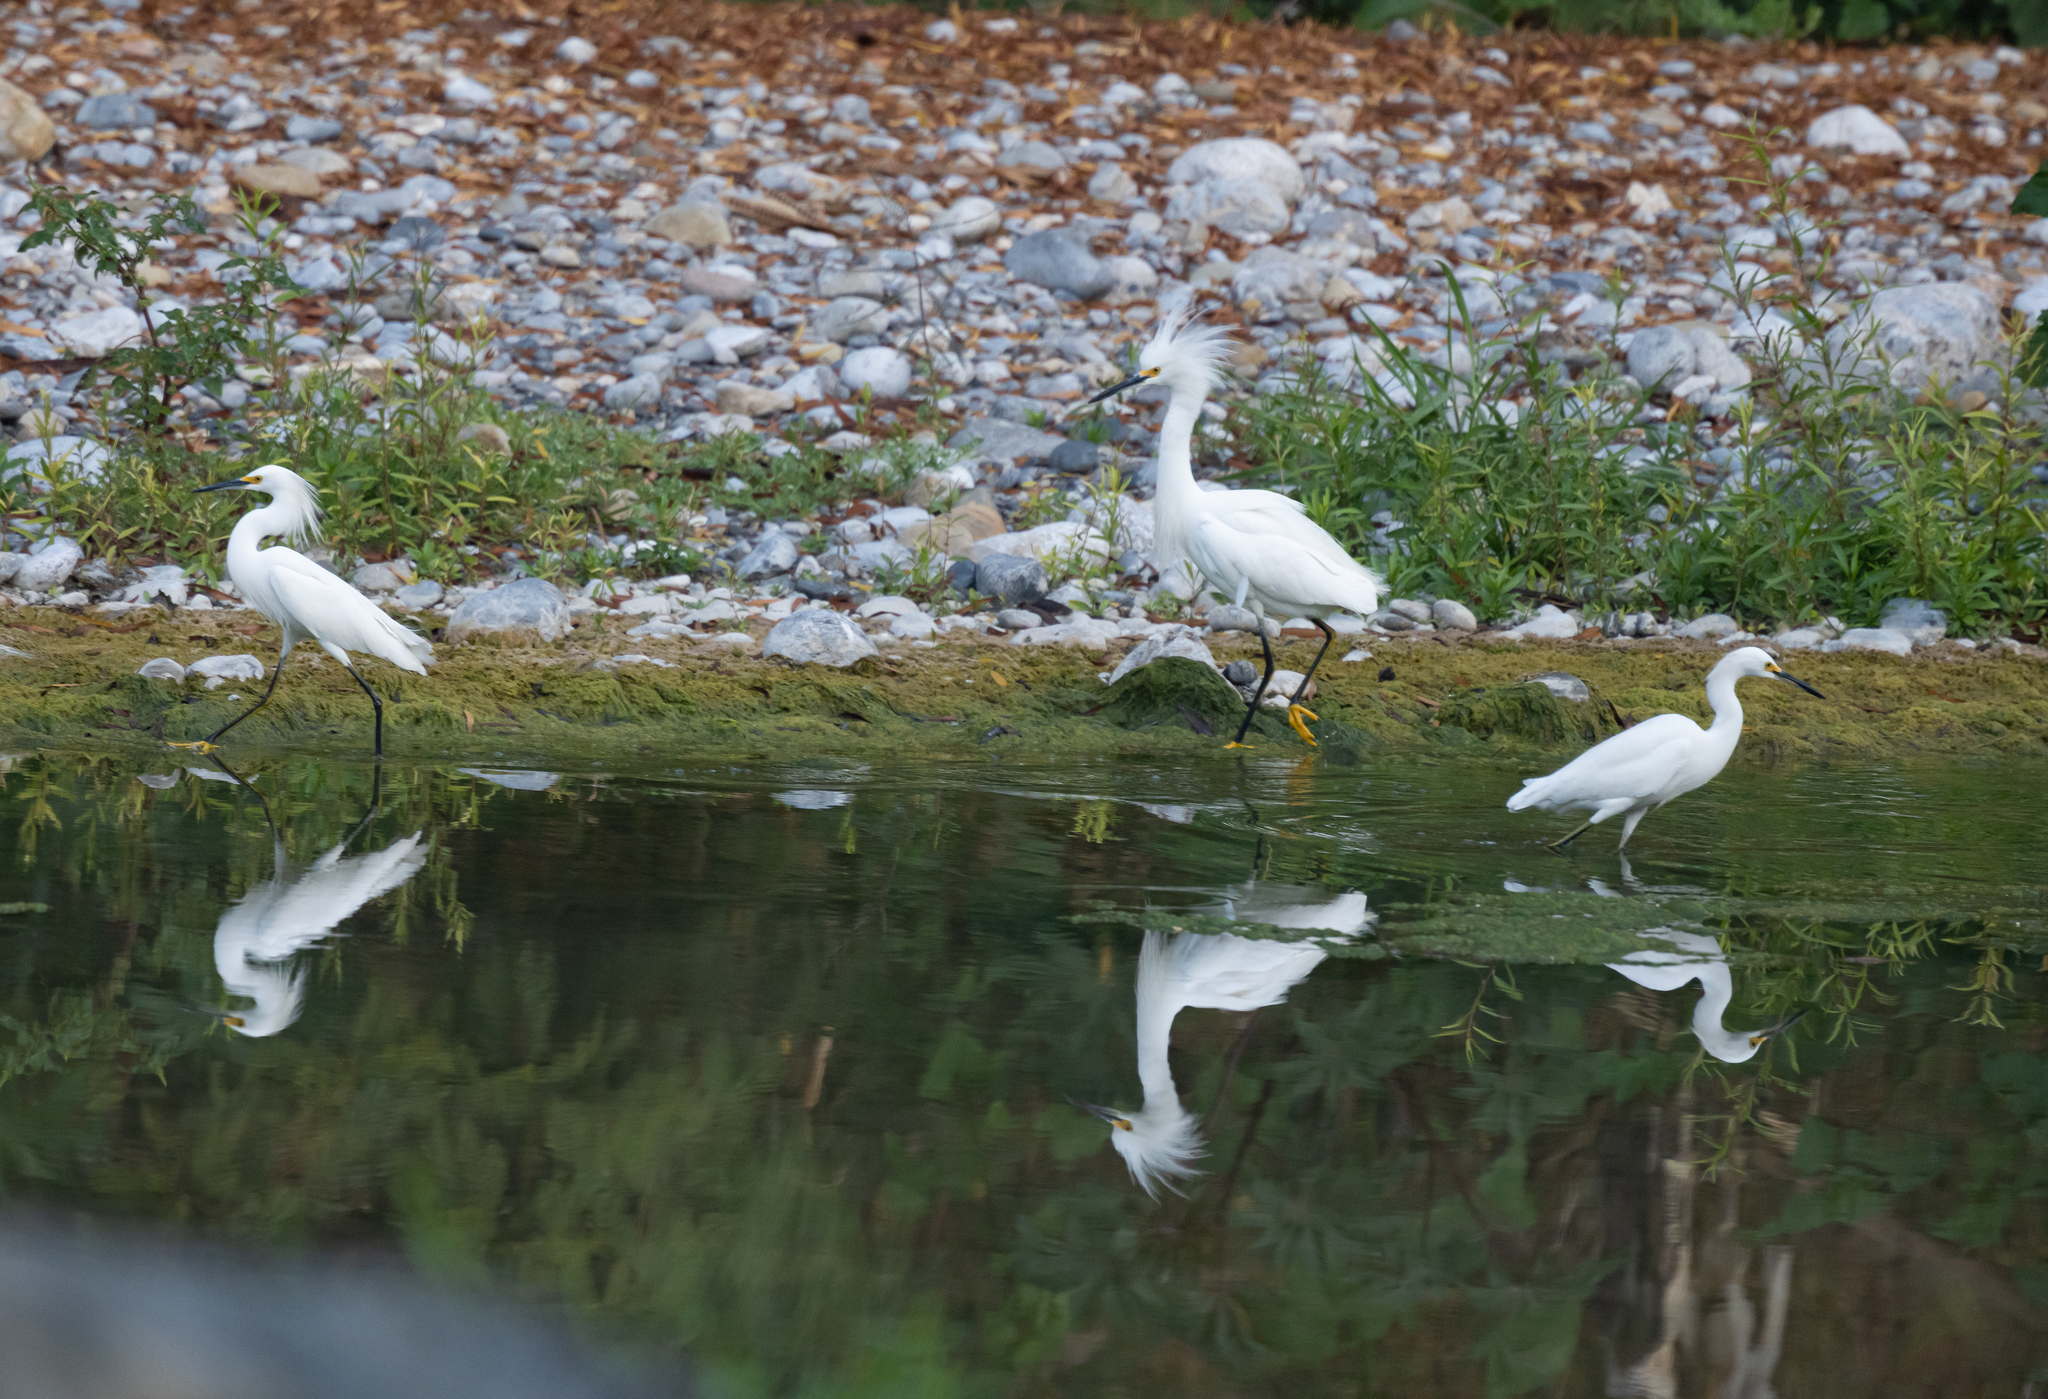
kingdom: Animalia
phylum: Chordata
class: Aves
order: Pelecaniformes
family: Ardeidae
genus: Egretta
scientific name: Egretta thula
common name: Snowy egret
